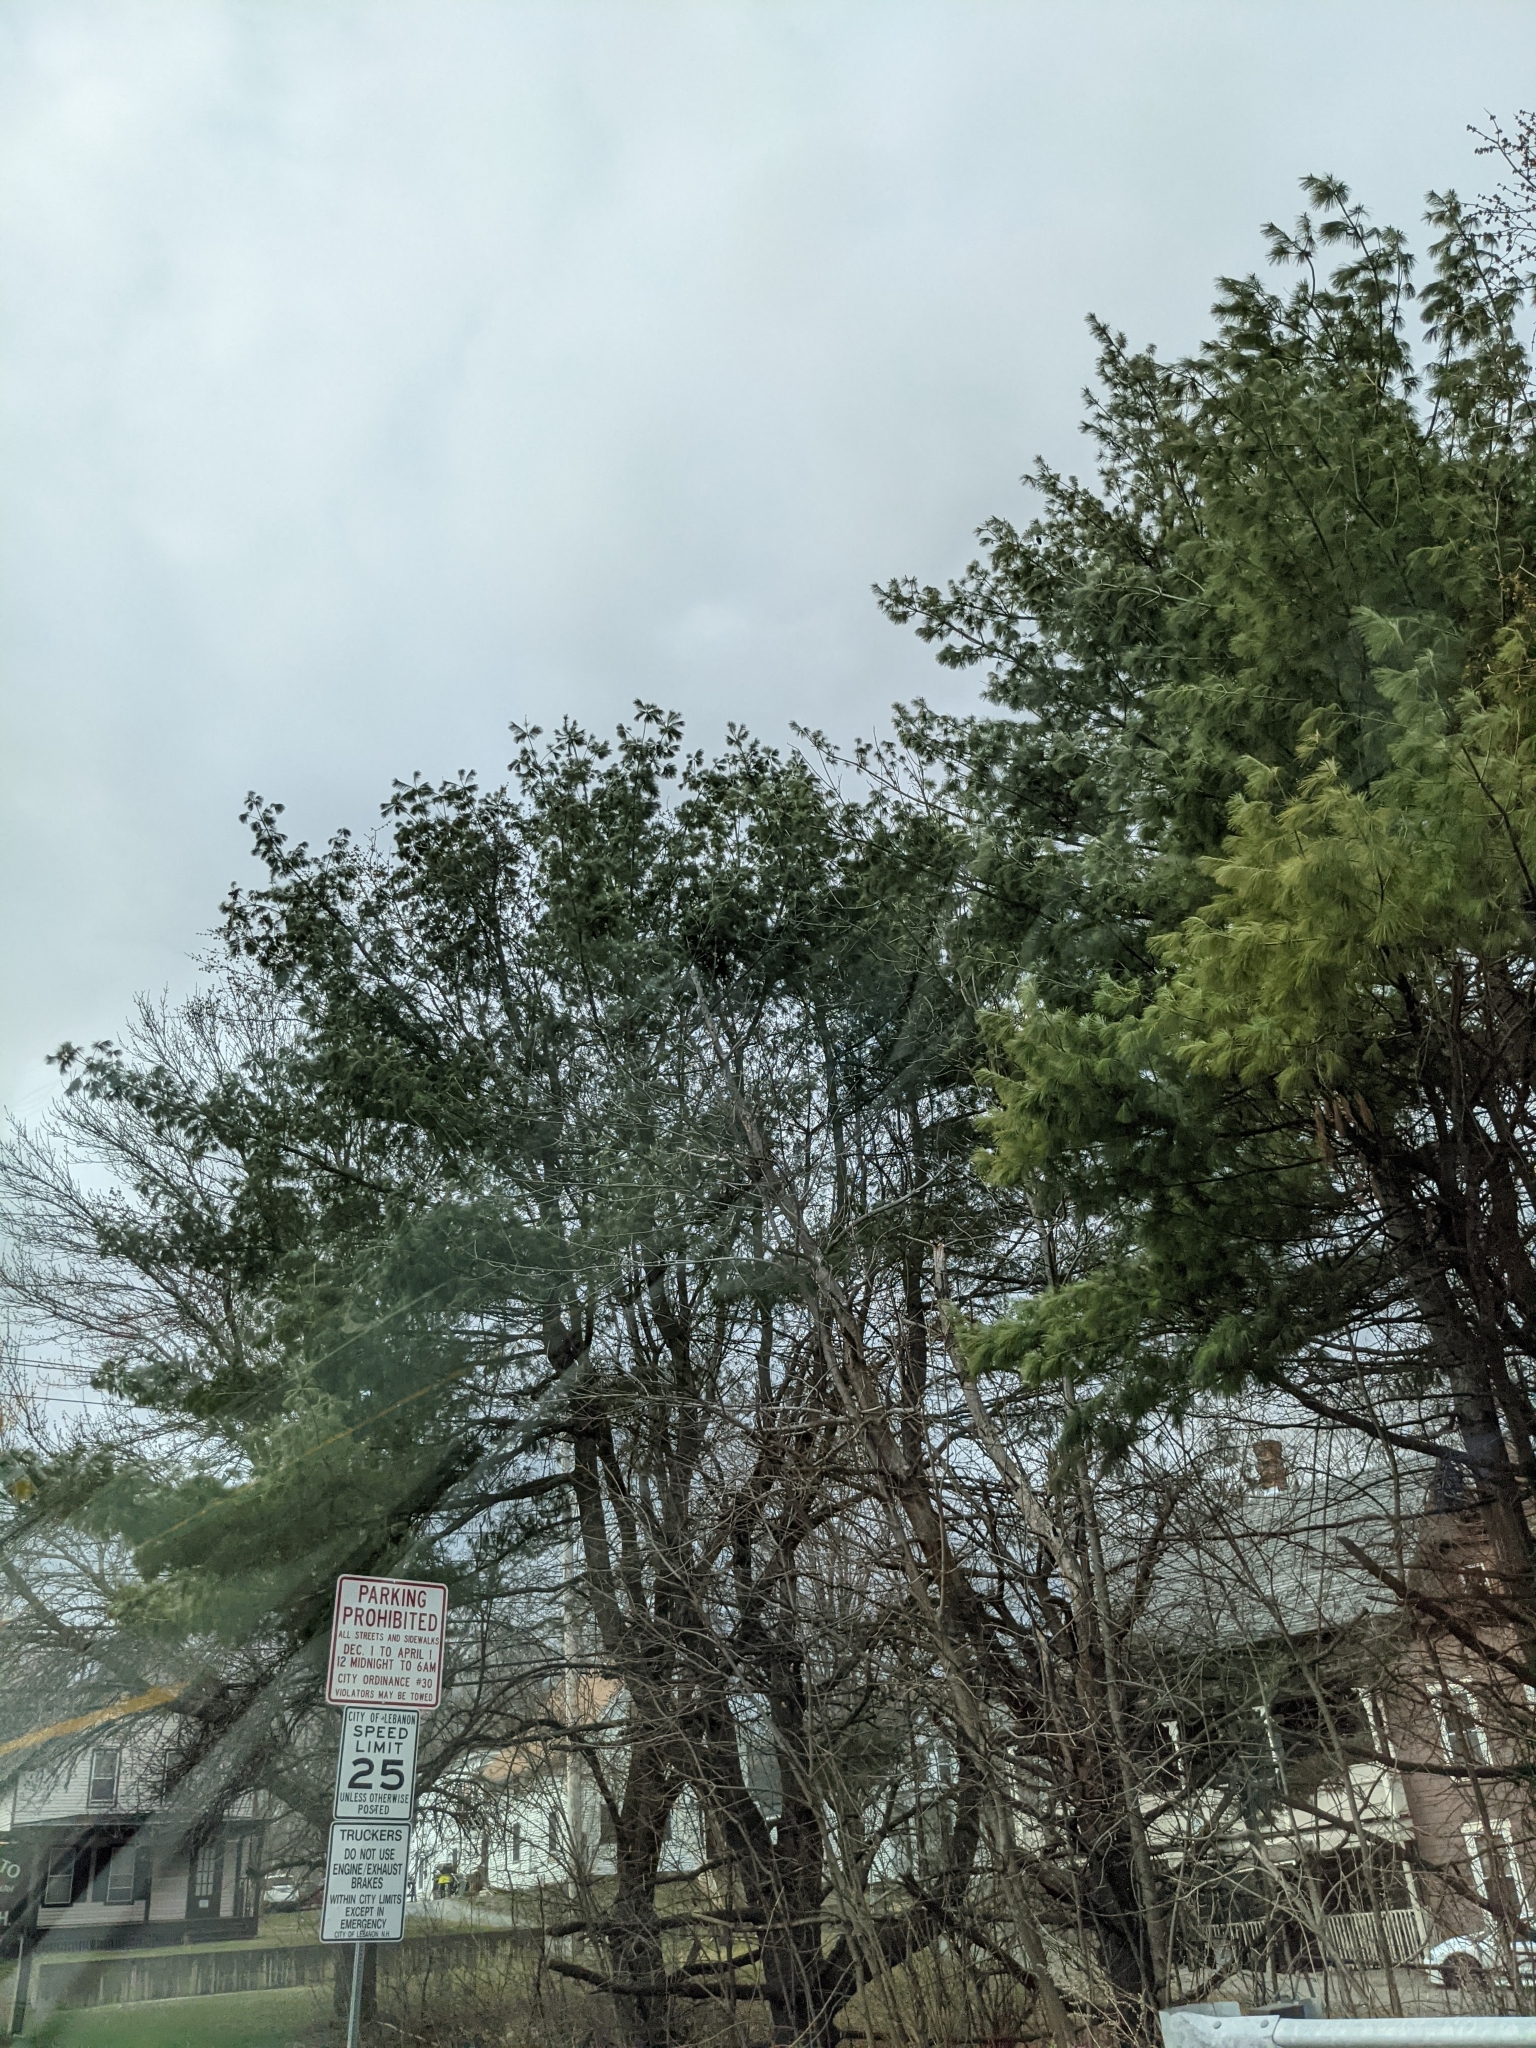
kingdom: Plantae
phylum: Tracheophyta
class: Pinopsida
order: Pinales
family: Pinaceae
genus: Pinus
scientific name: Pinus strobus
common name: Weymouth pine
